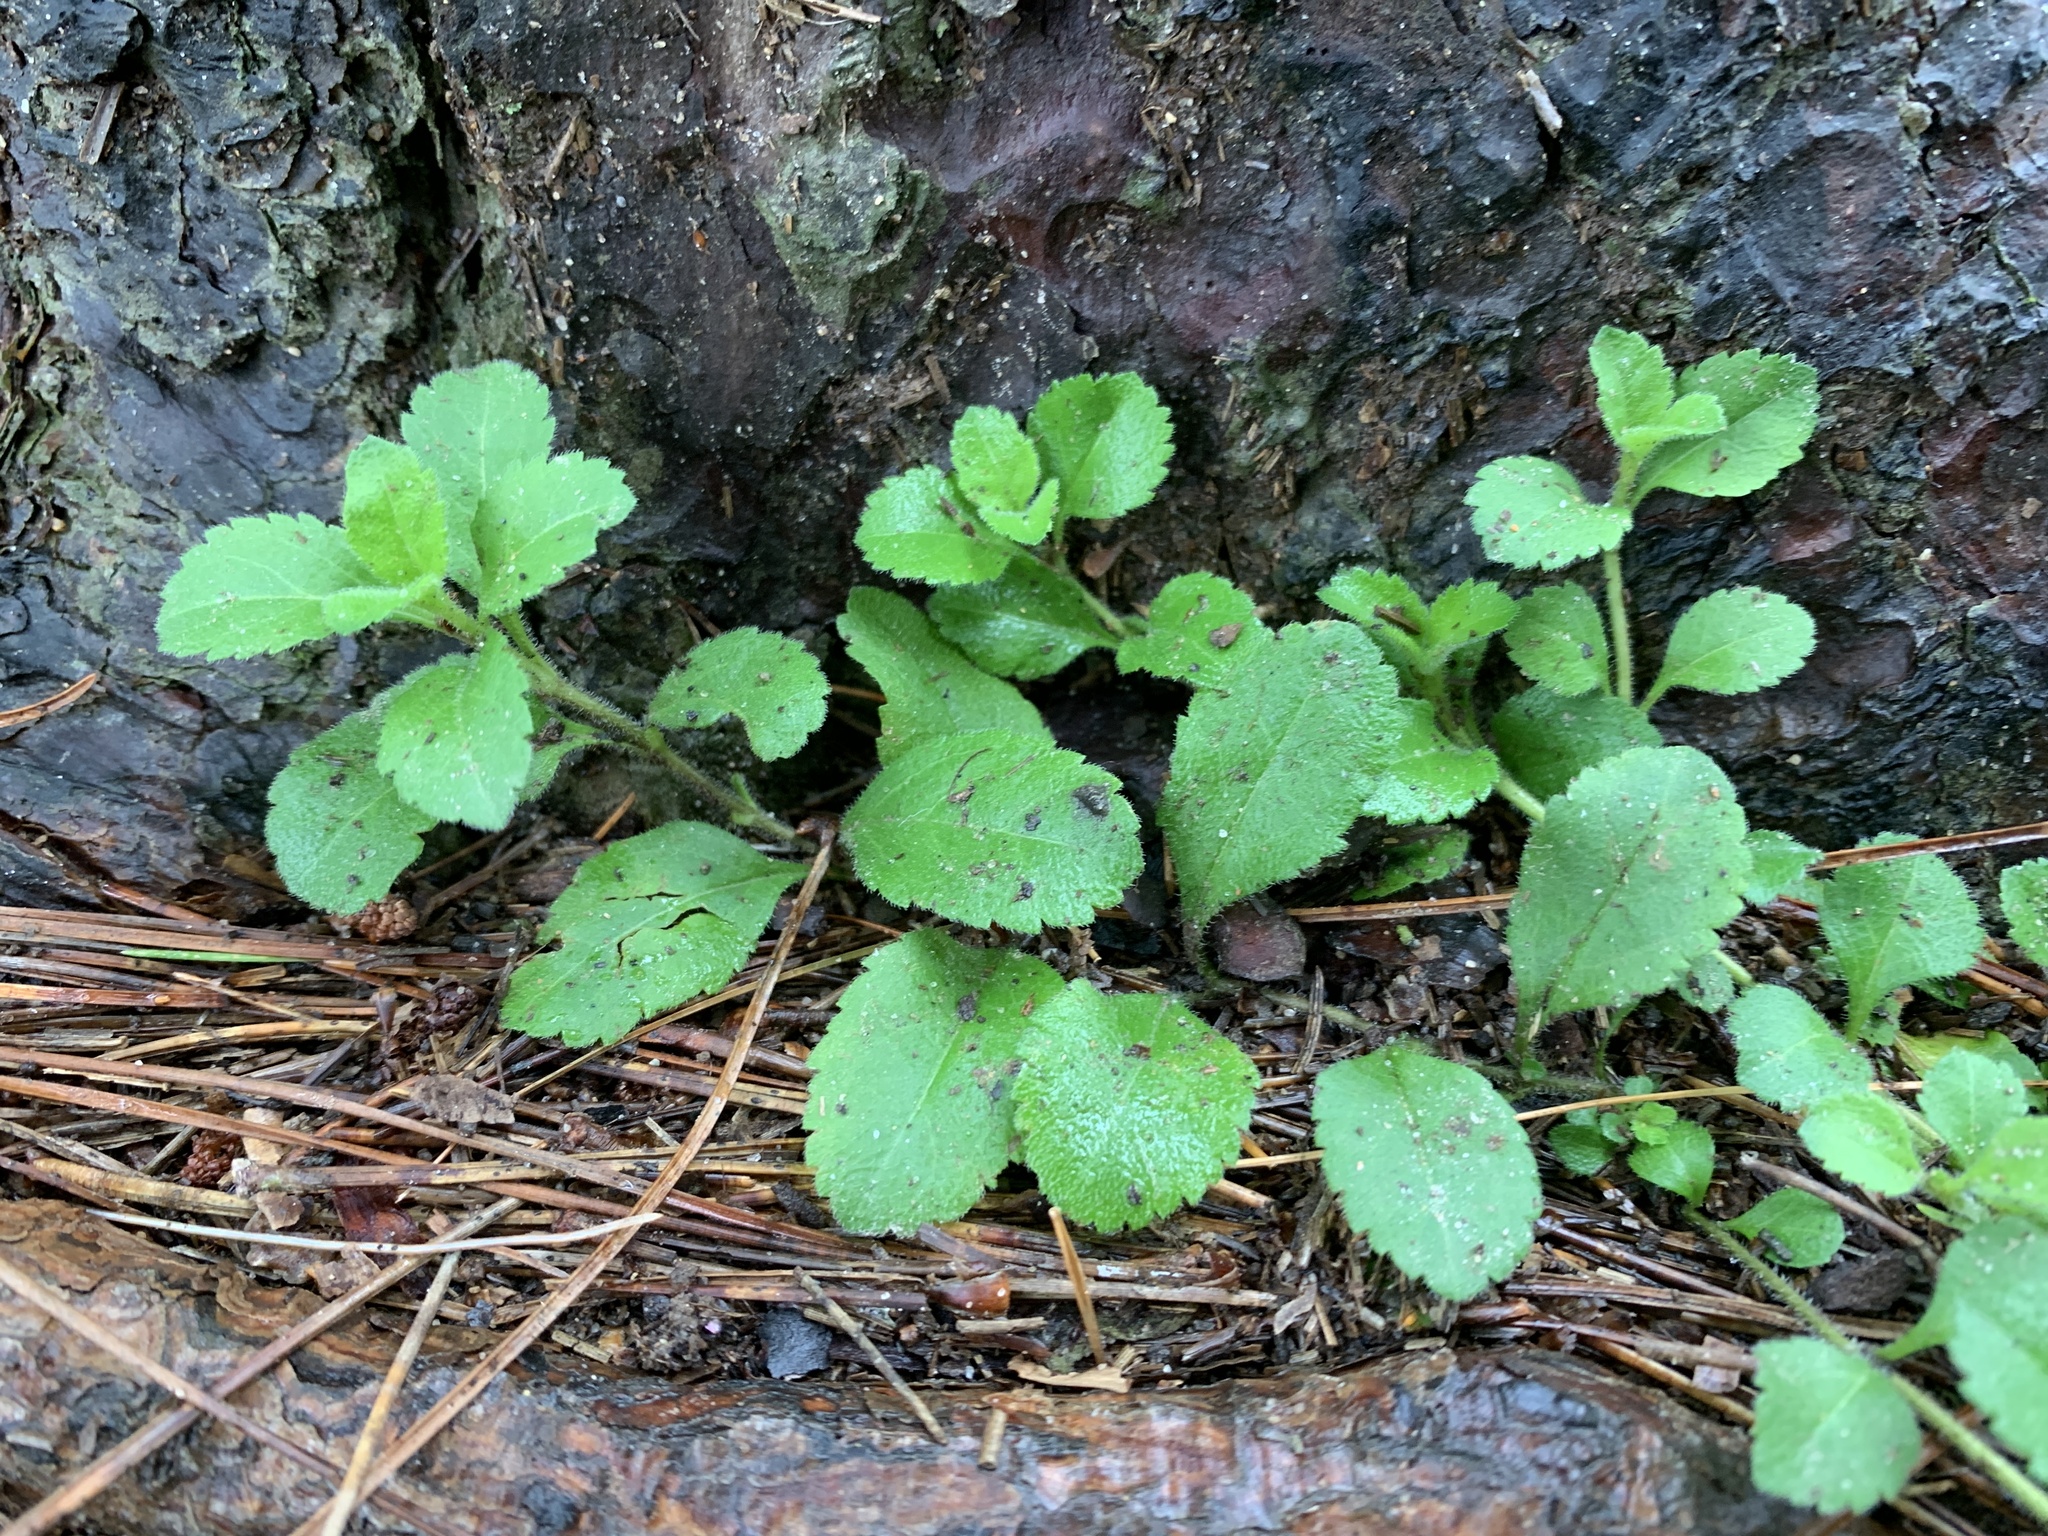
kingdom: Plantae
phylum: Tracheophyta
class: Magnoliopsida
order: Lamiales
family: Plantaginaceae
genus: Veronica
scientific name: Veronica officinalis
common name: Common speedwell
